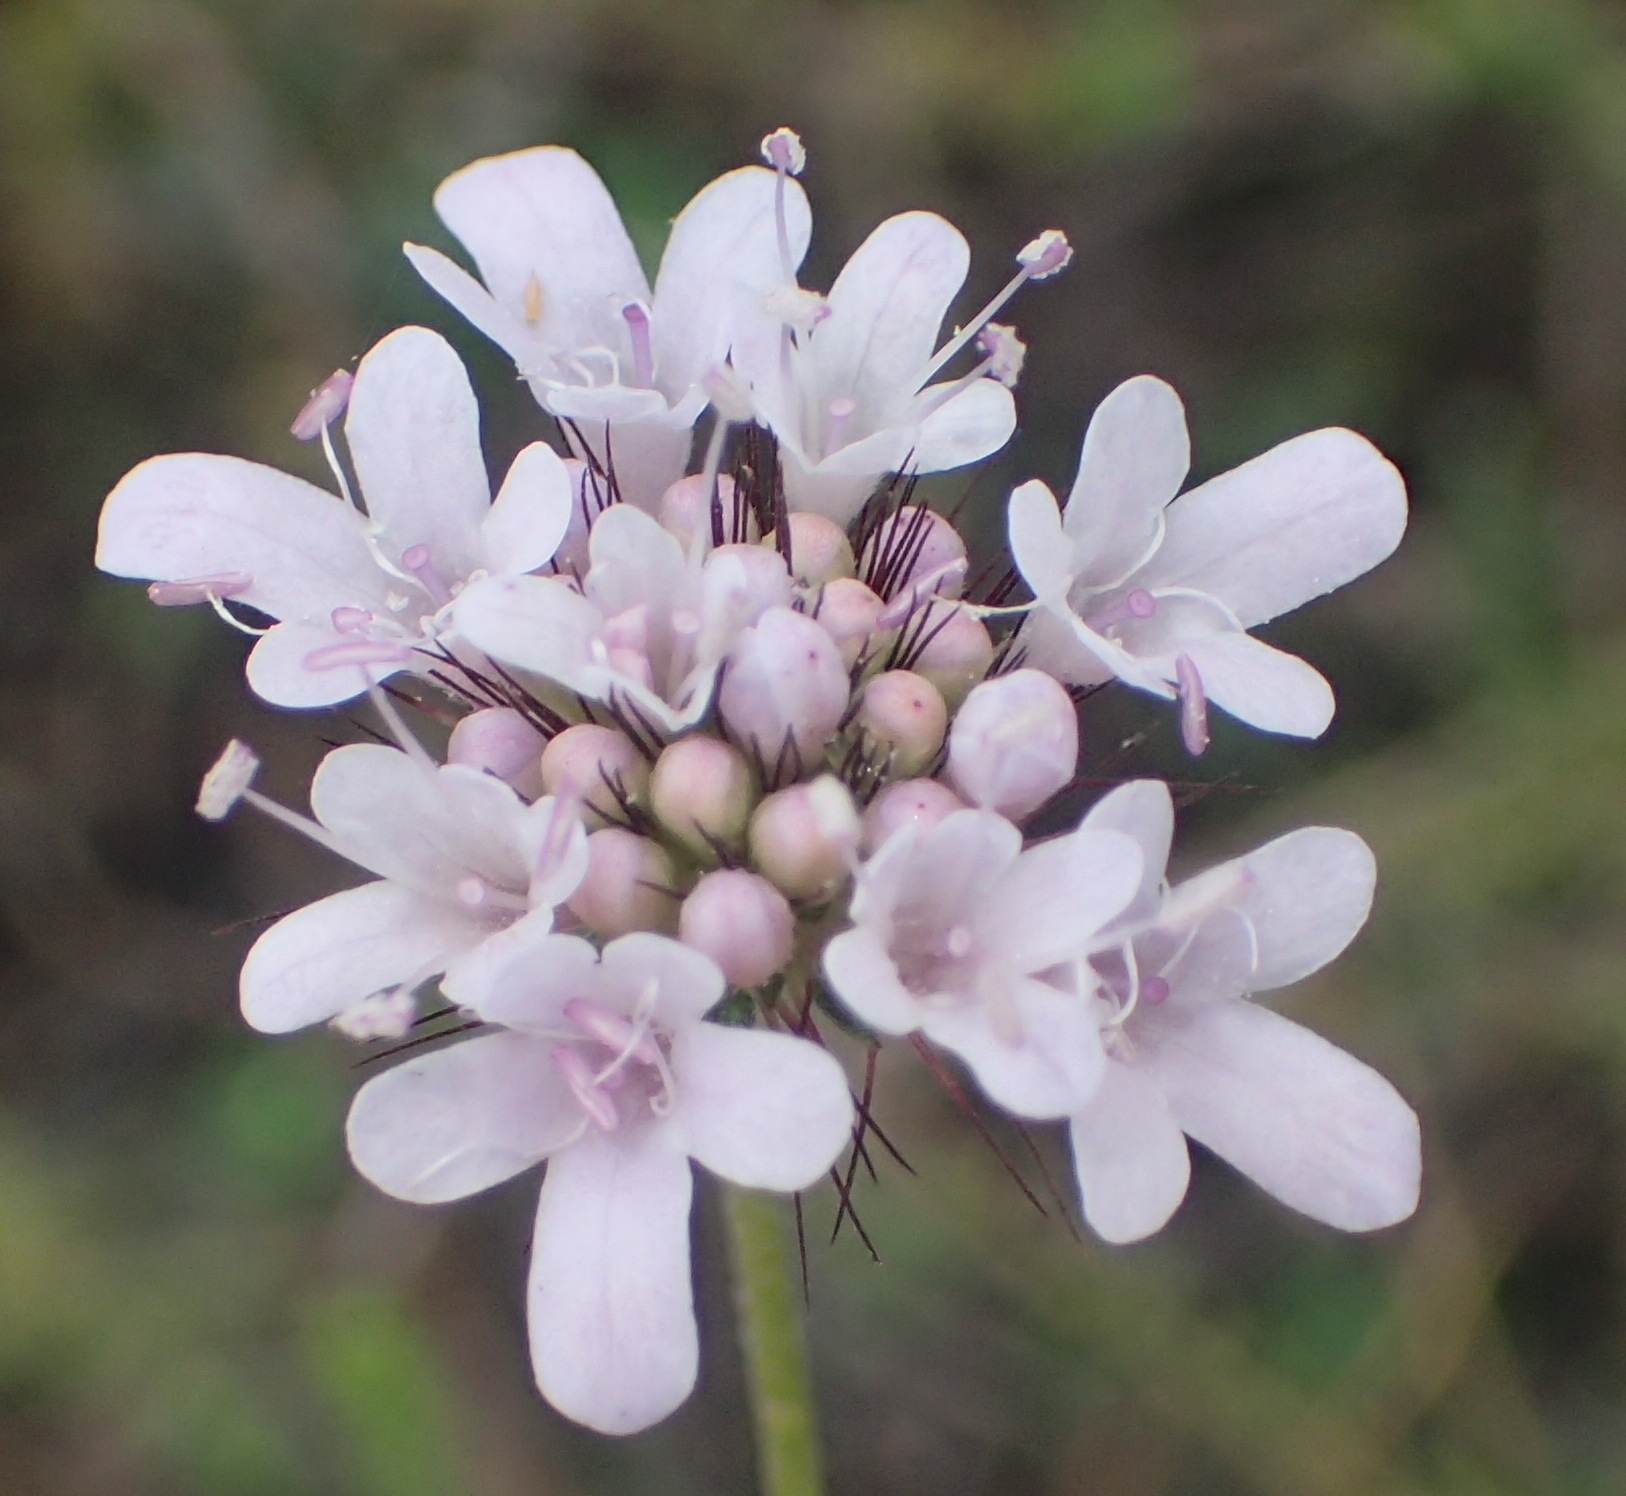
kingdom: Plantae
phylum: Tracheophyta
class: Magnoliopsida
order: Dipsacales
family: Caprifoliaceae
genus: Scabiosa
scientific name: Scabiosa tysonii
